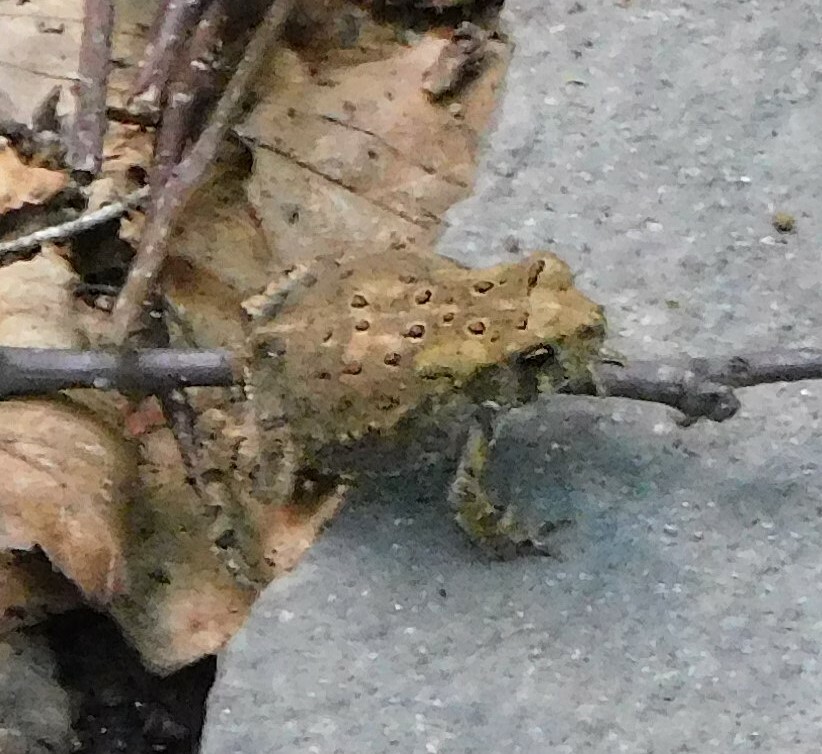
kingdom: Animalia
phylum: Chordata
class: Amphibia
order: Anura
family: Bufonidae
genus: Anaxyrus
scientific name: Anaxyrus americanus
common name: American toad
